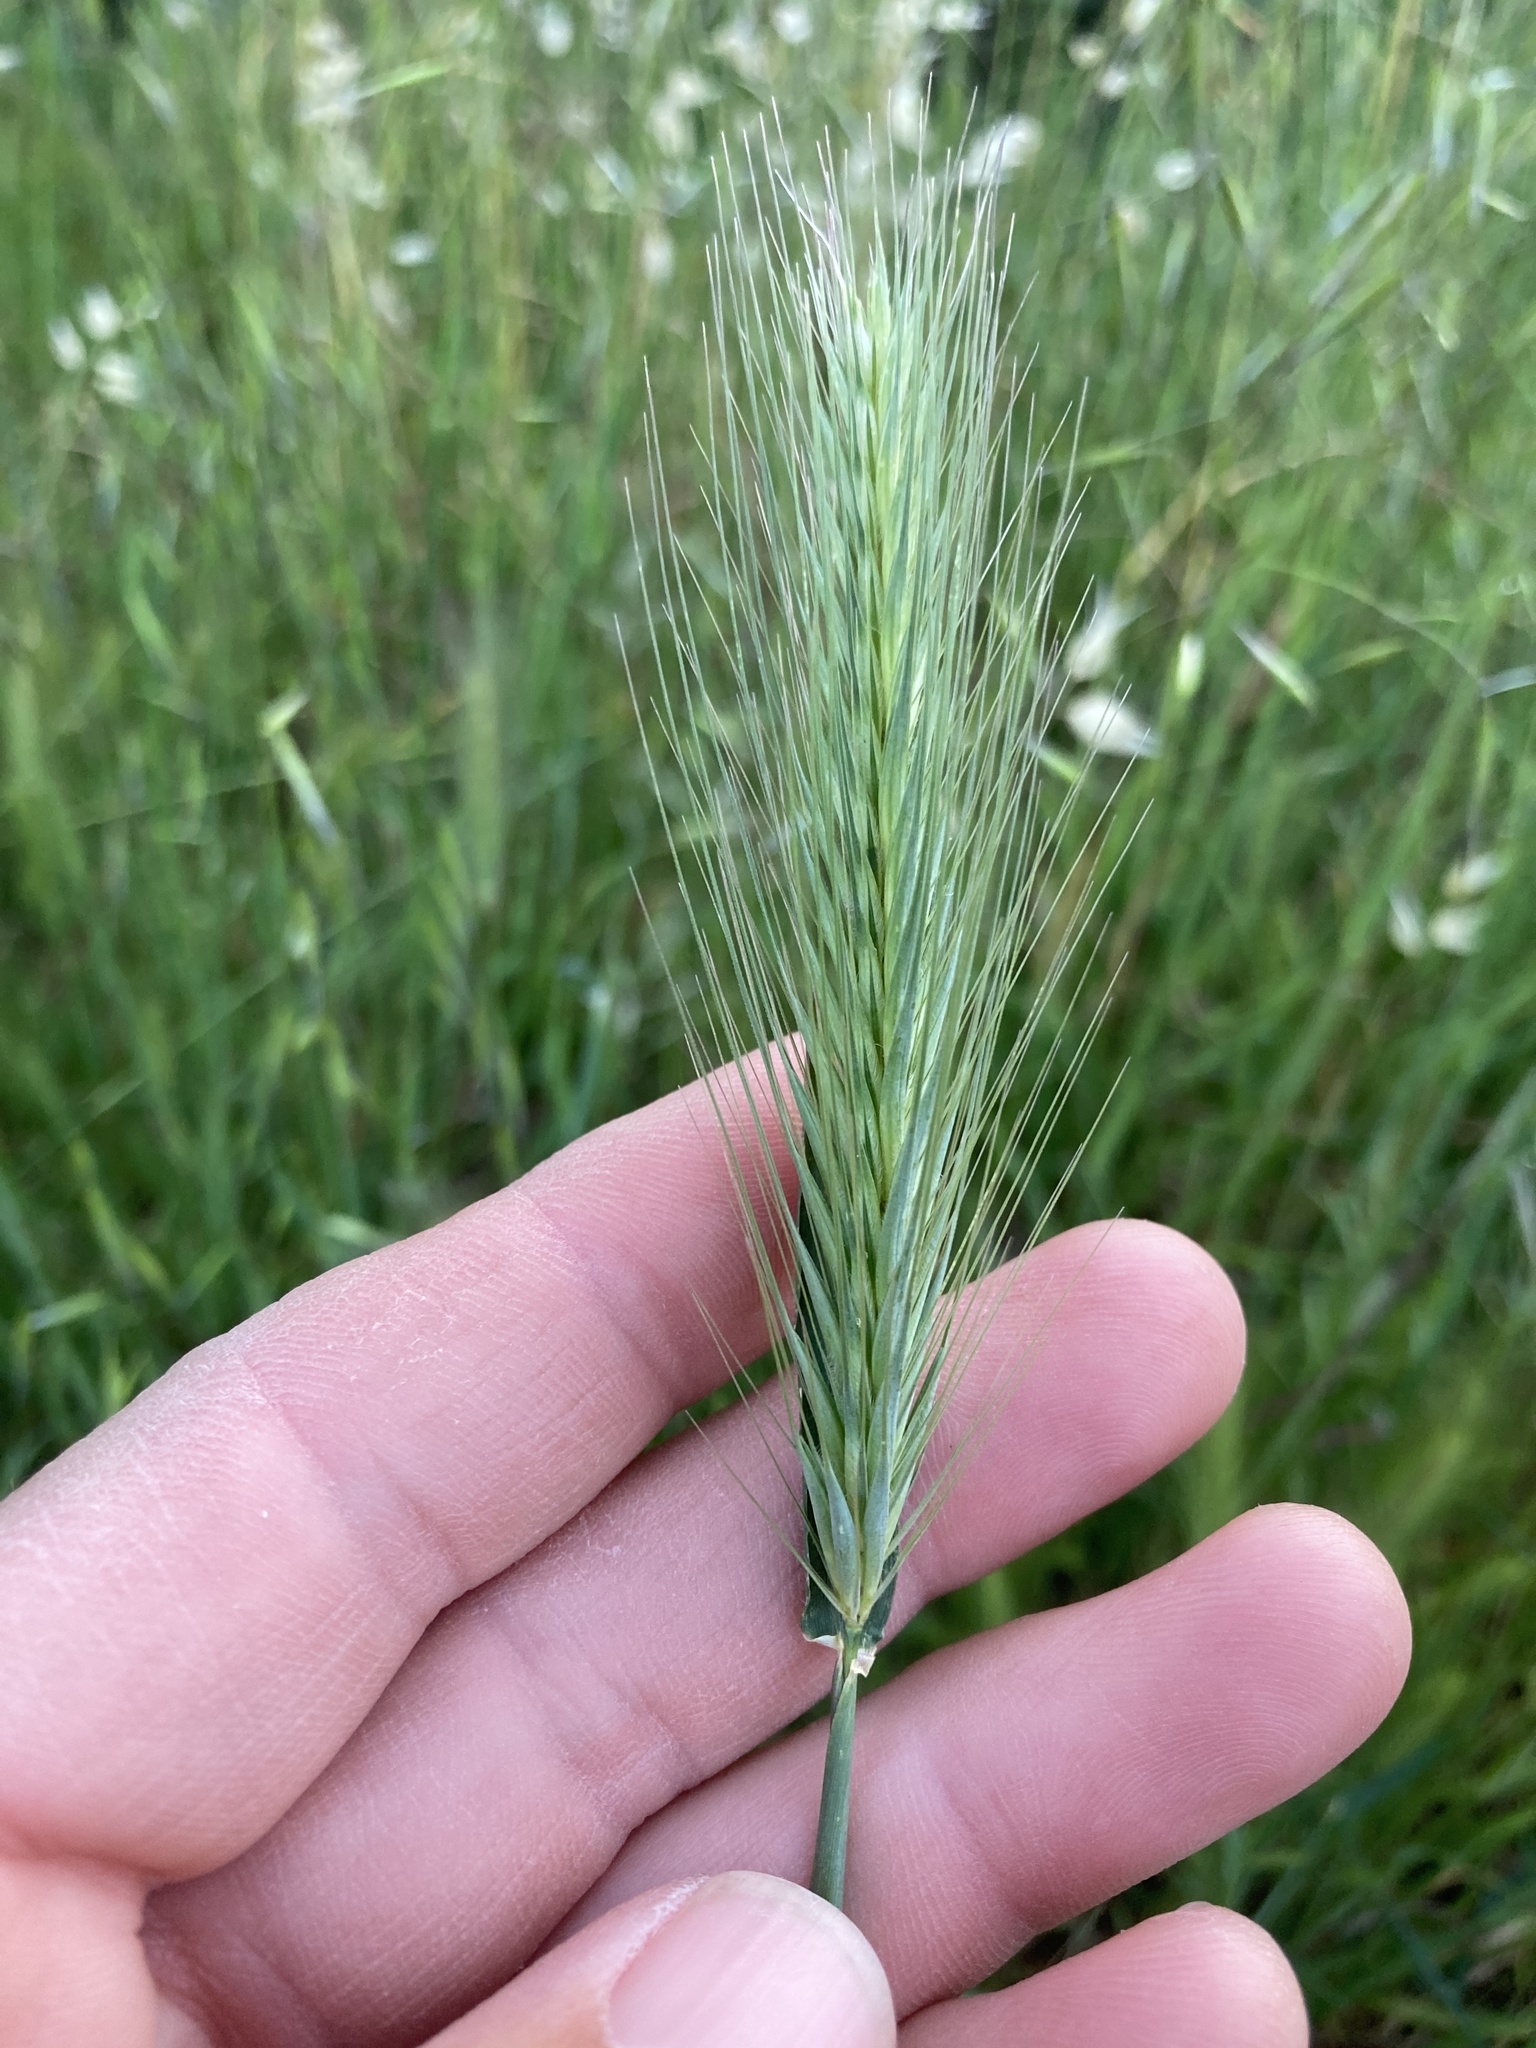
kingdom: Plantae
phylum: Tracheophyta
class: Liliopsida
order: Poales
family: Poaceae
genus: Hordeum
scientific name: Hordeum murinum
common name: Wall barley
